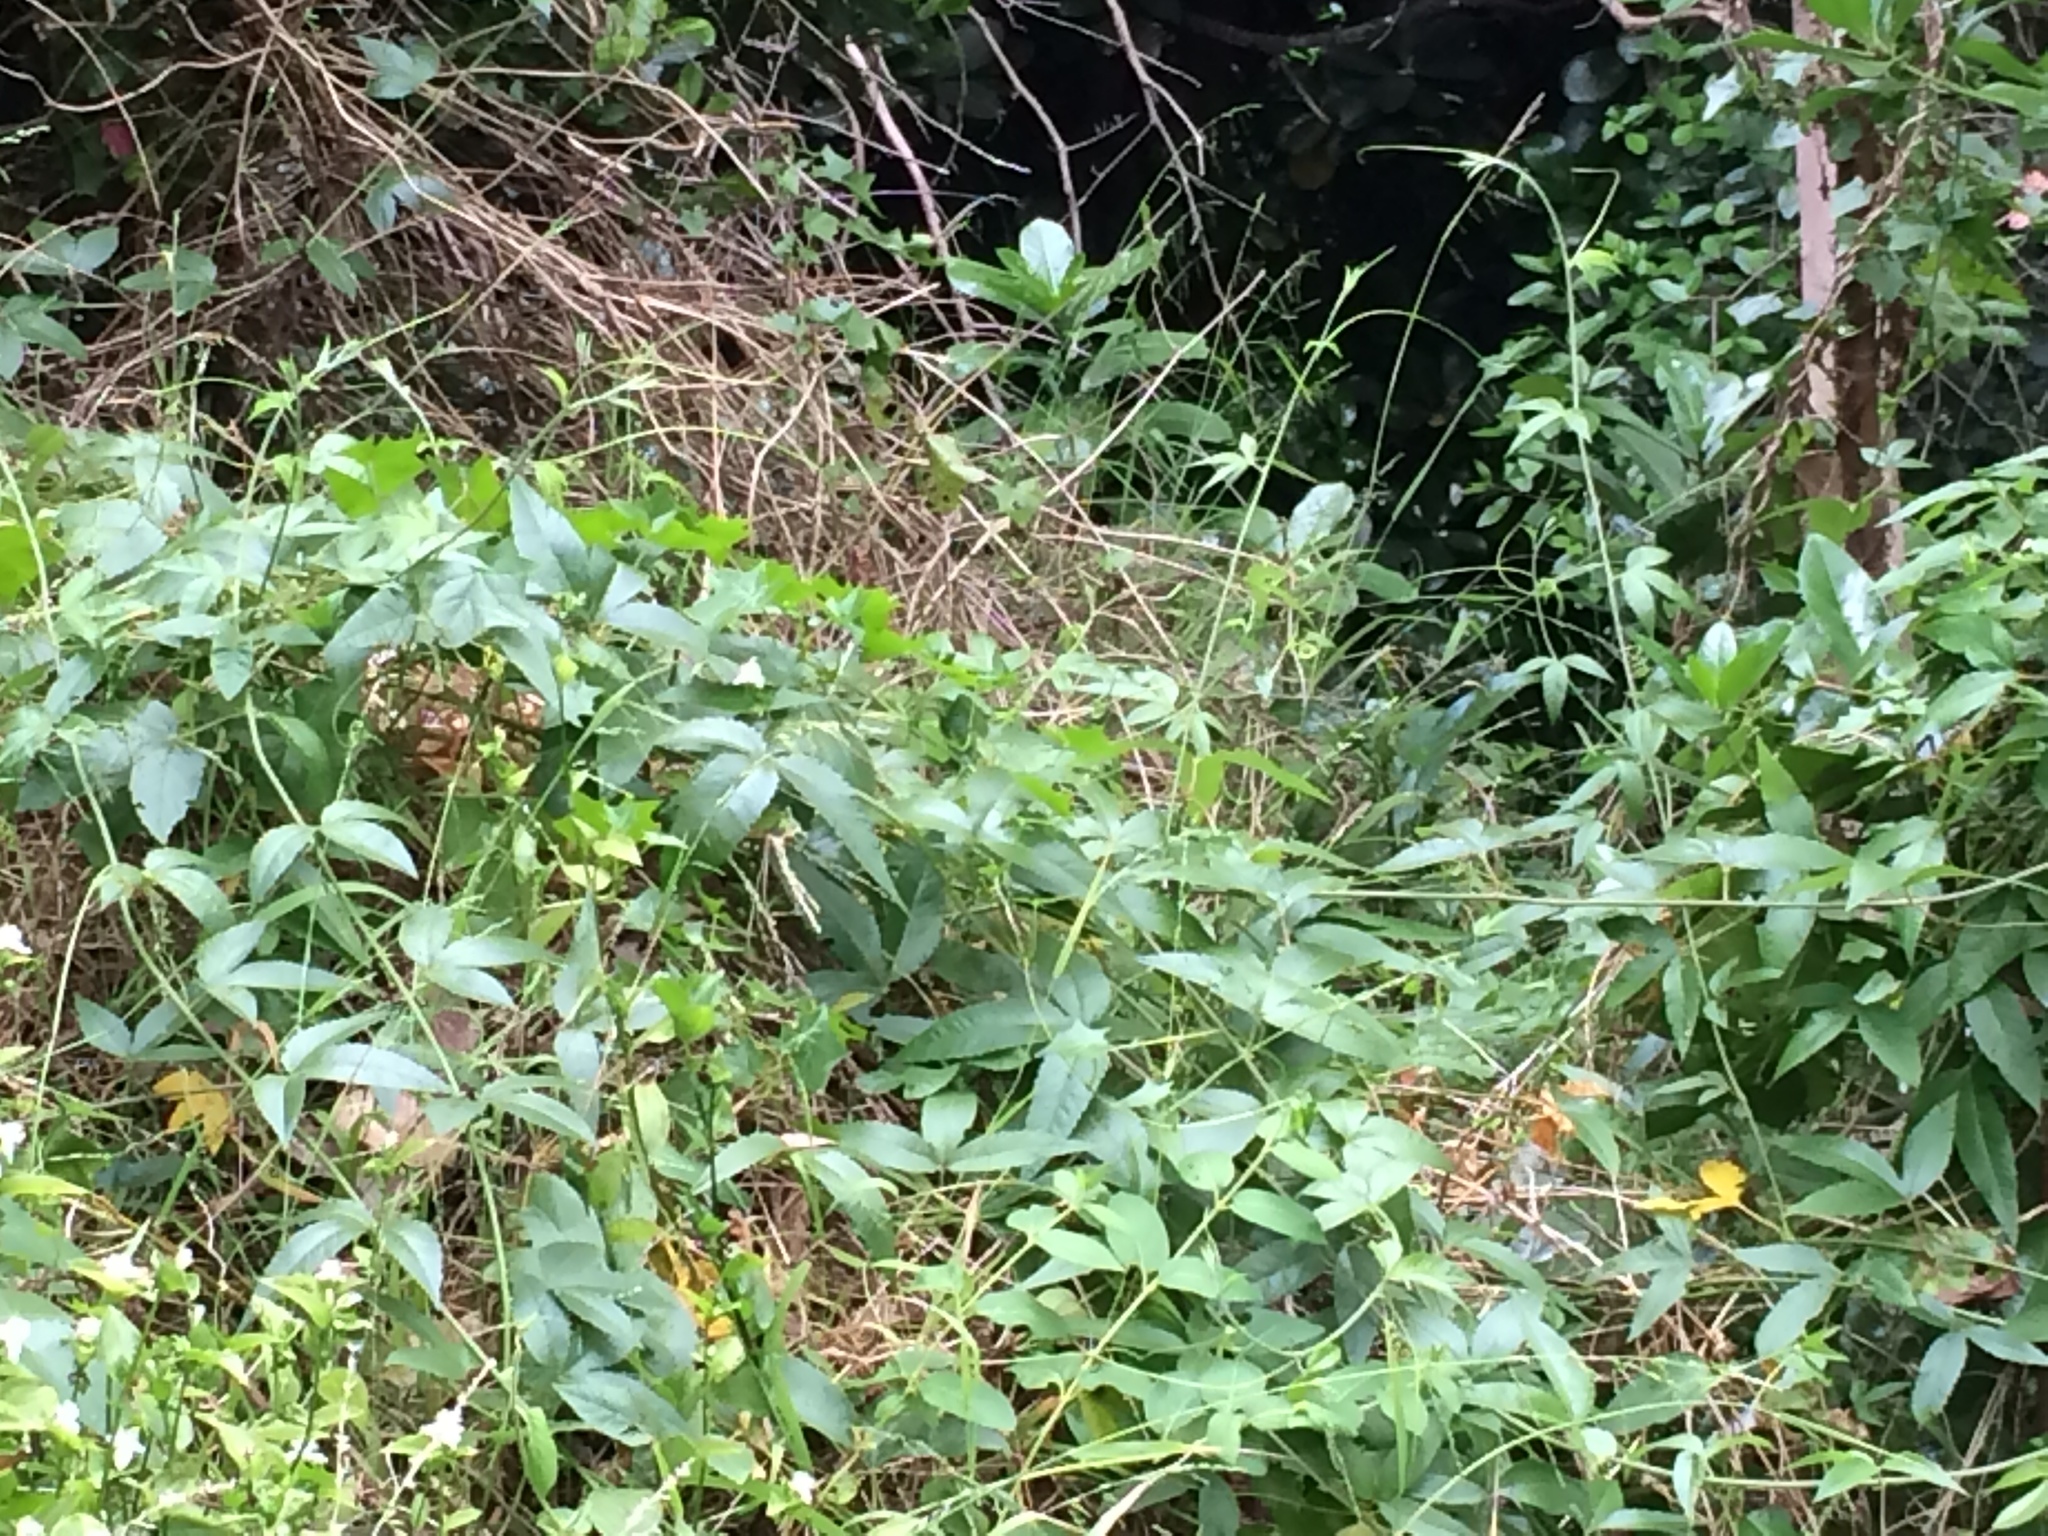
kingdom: Plantae
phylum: Tracheophyta
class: Magnoliopsida
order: Malpighiales
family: Passifloraceae
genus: Passiflora
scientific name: Passiflora tripartita
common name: Banana poka
